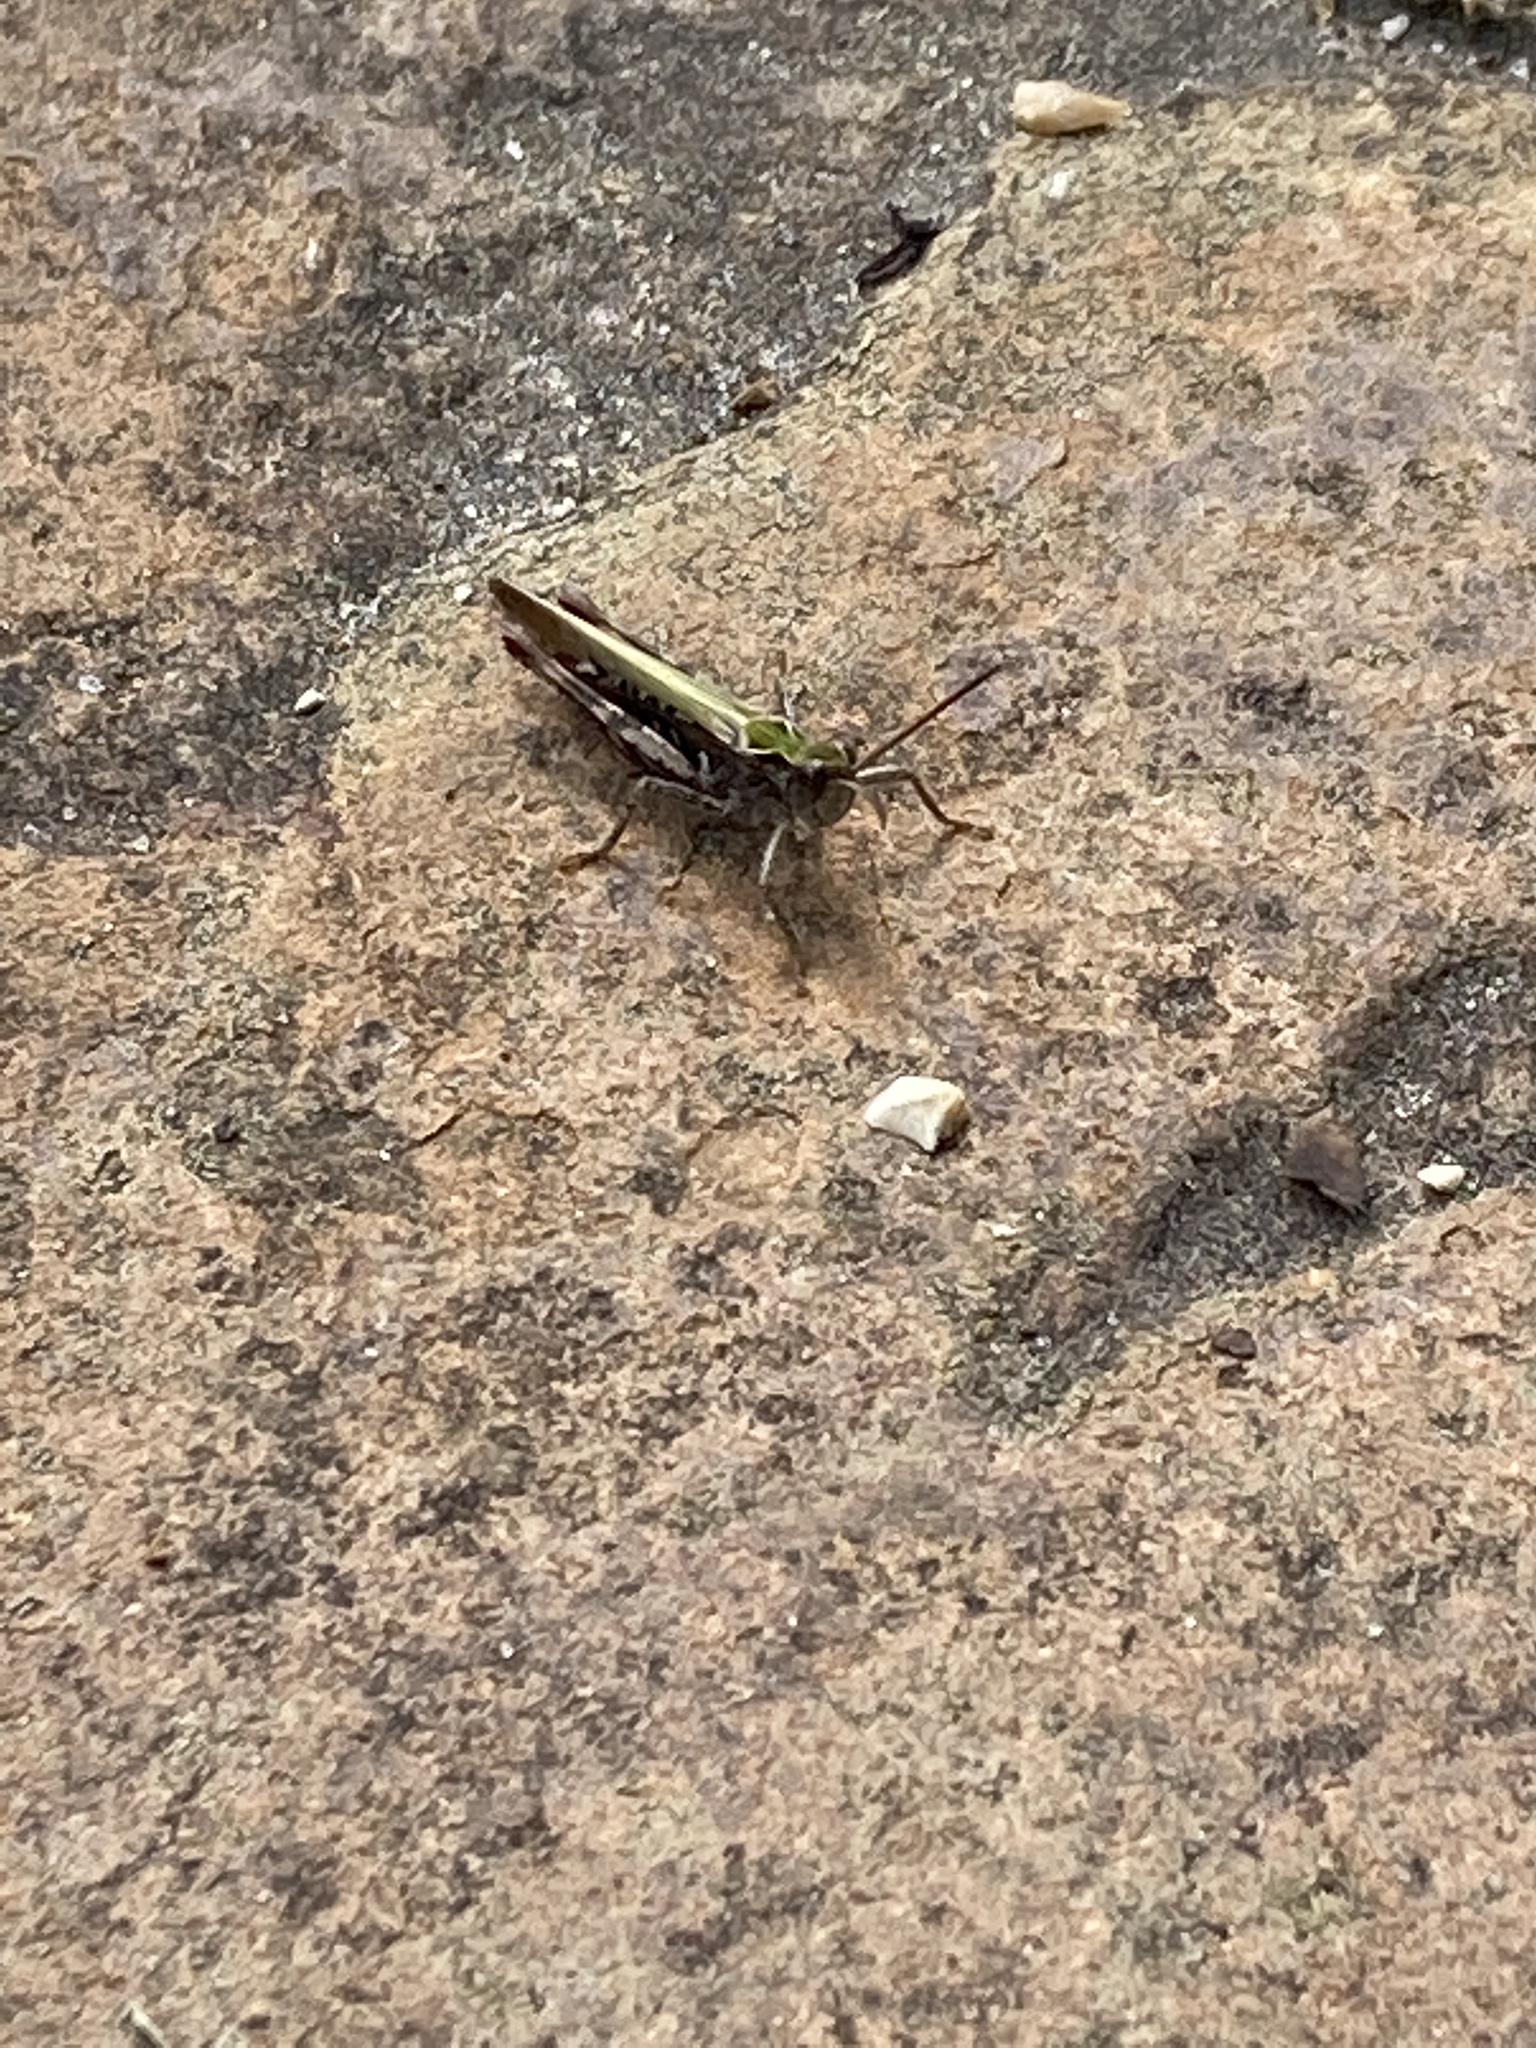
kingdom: Animalia
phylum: Arthropoda
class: Insecta
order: Orthoptera
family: Acrididae
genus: Chorthippus
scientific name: Chorthippus brunneus
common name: Field grasshopper
